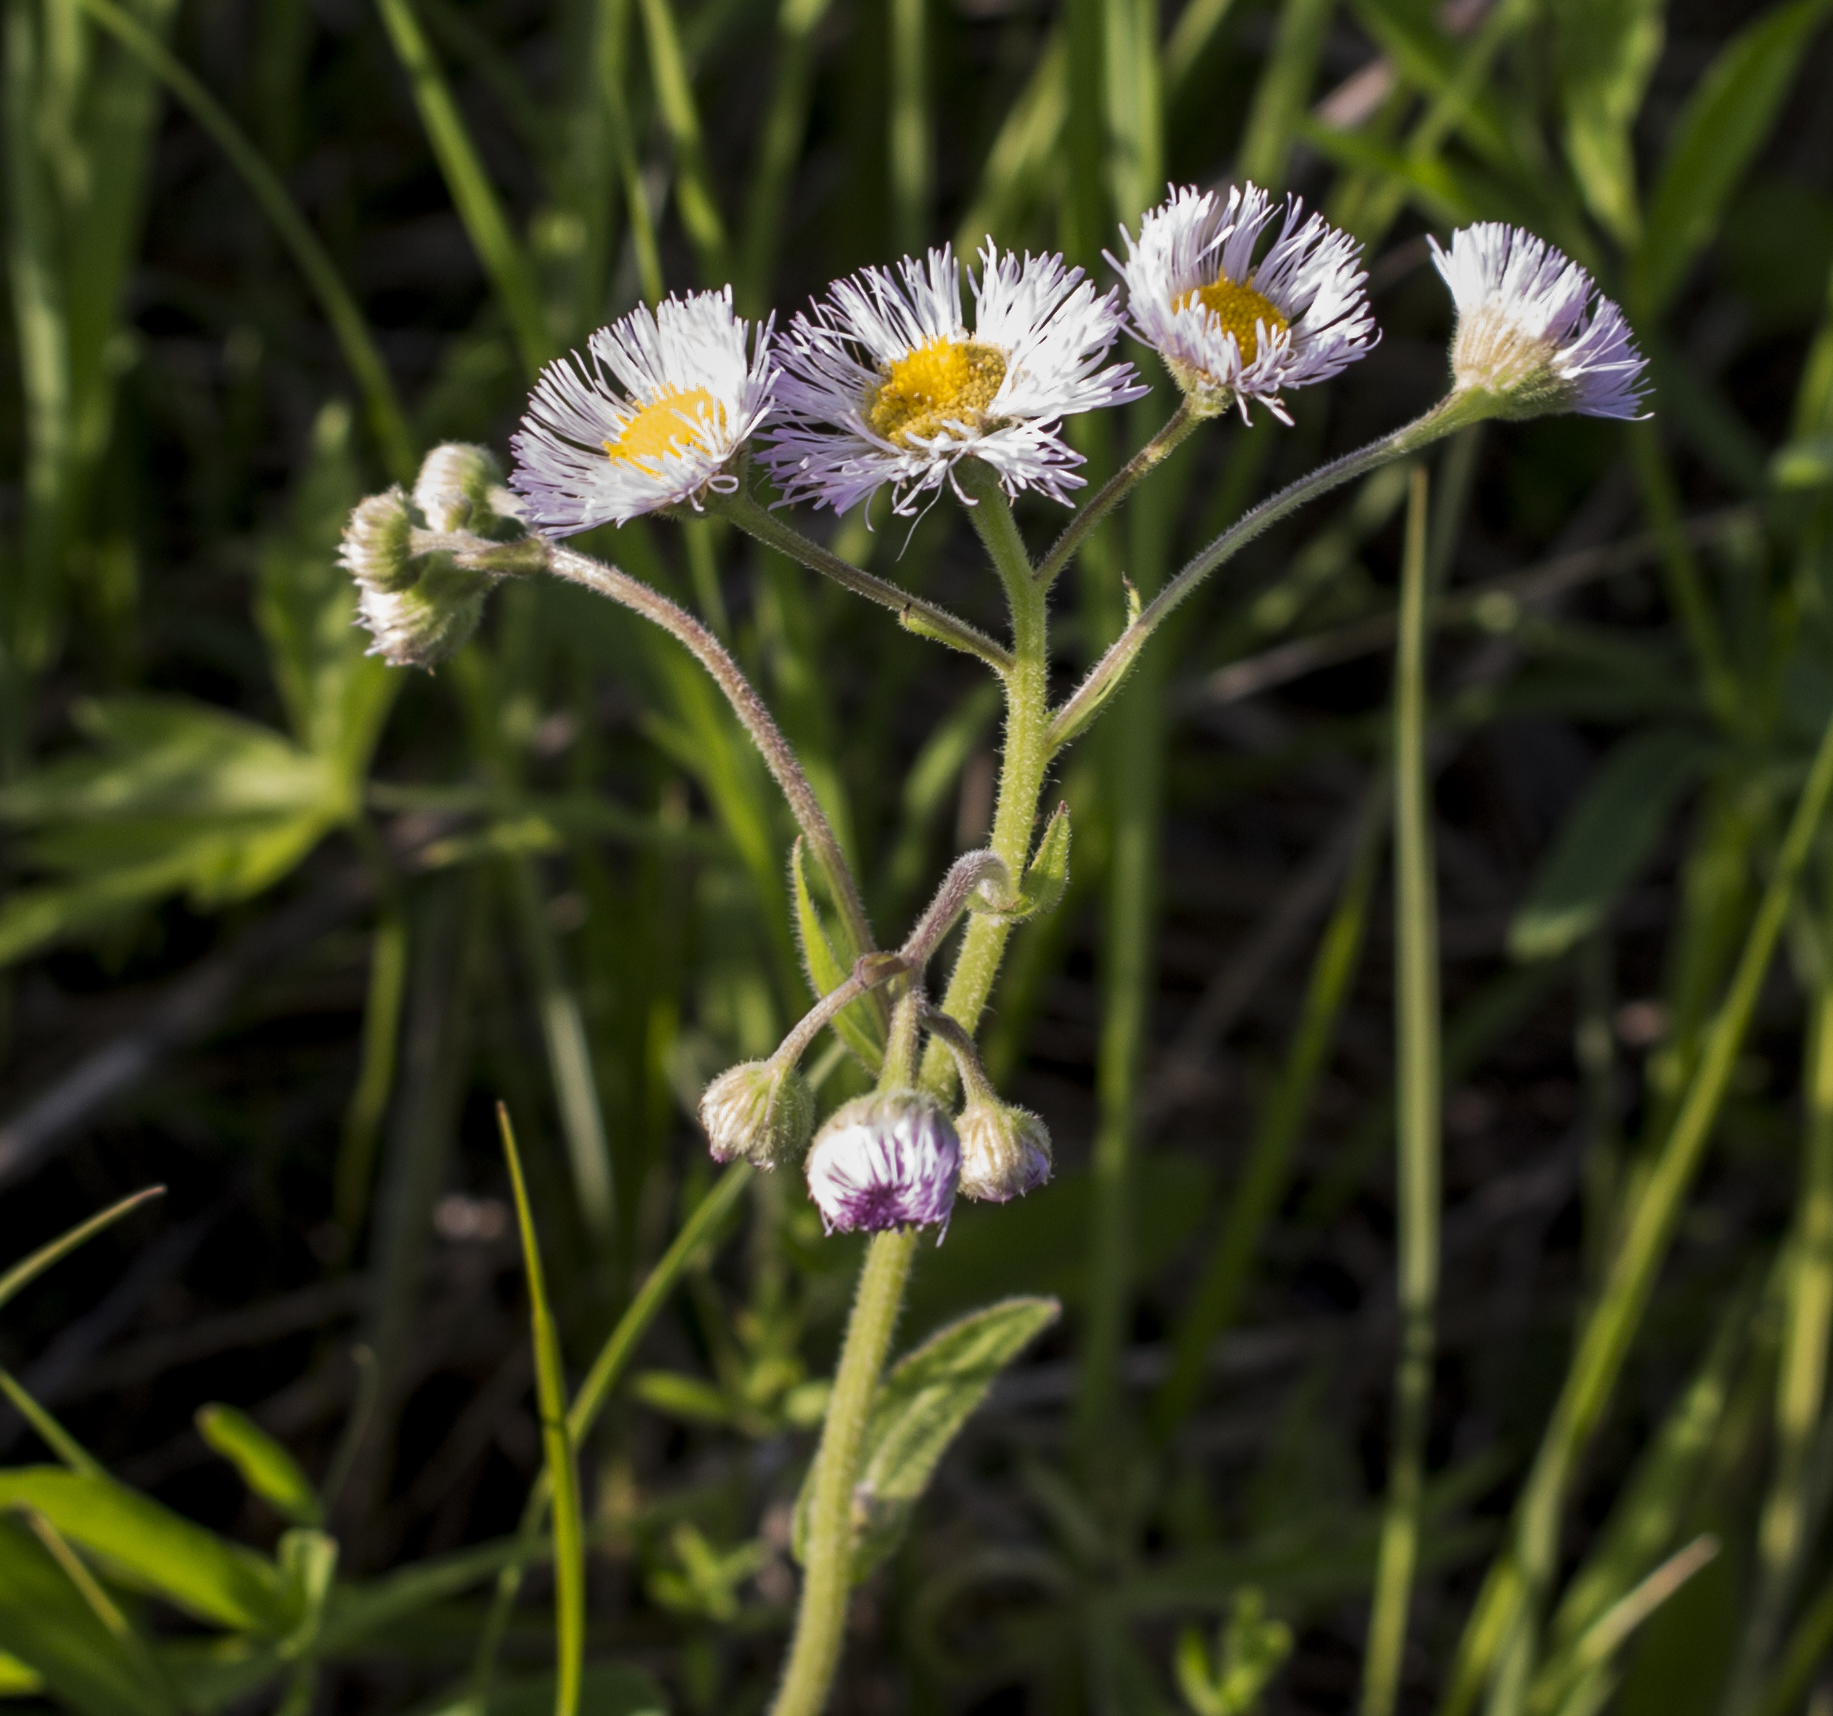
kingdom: Plantae
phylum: Tracheophyta
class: Magnoliopsida
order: Asterales
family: Asteraceae
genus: Erigeron
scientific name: Erigeron philadelphicus
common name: Robin's-plantain
